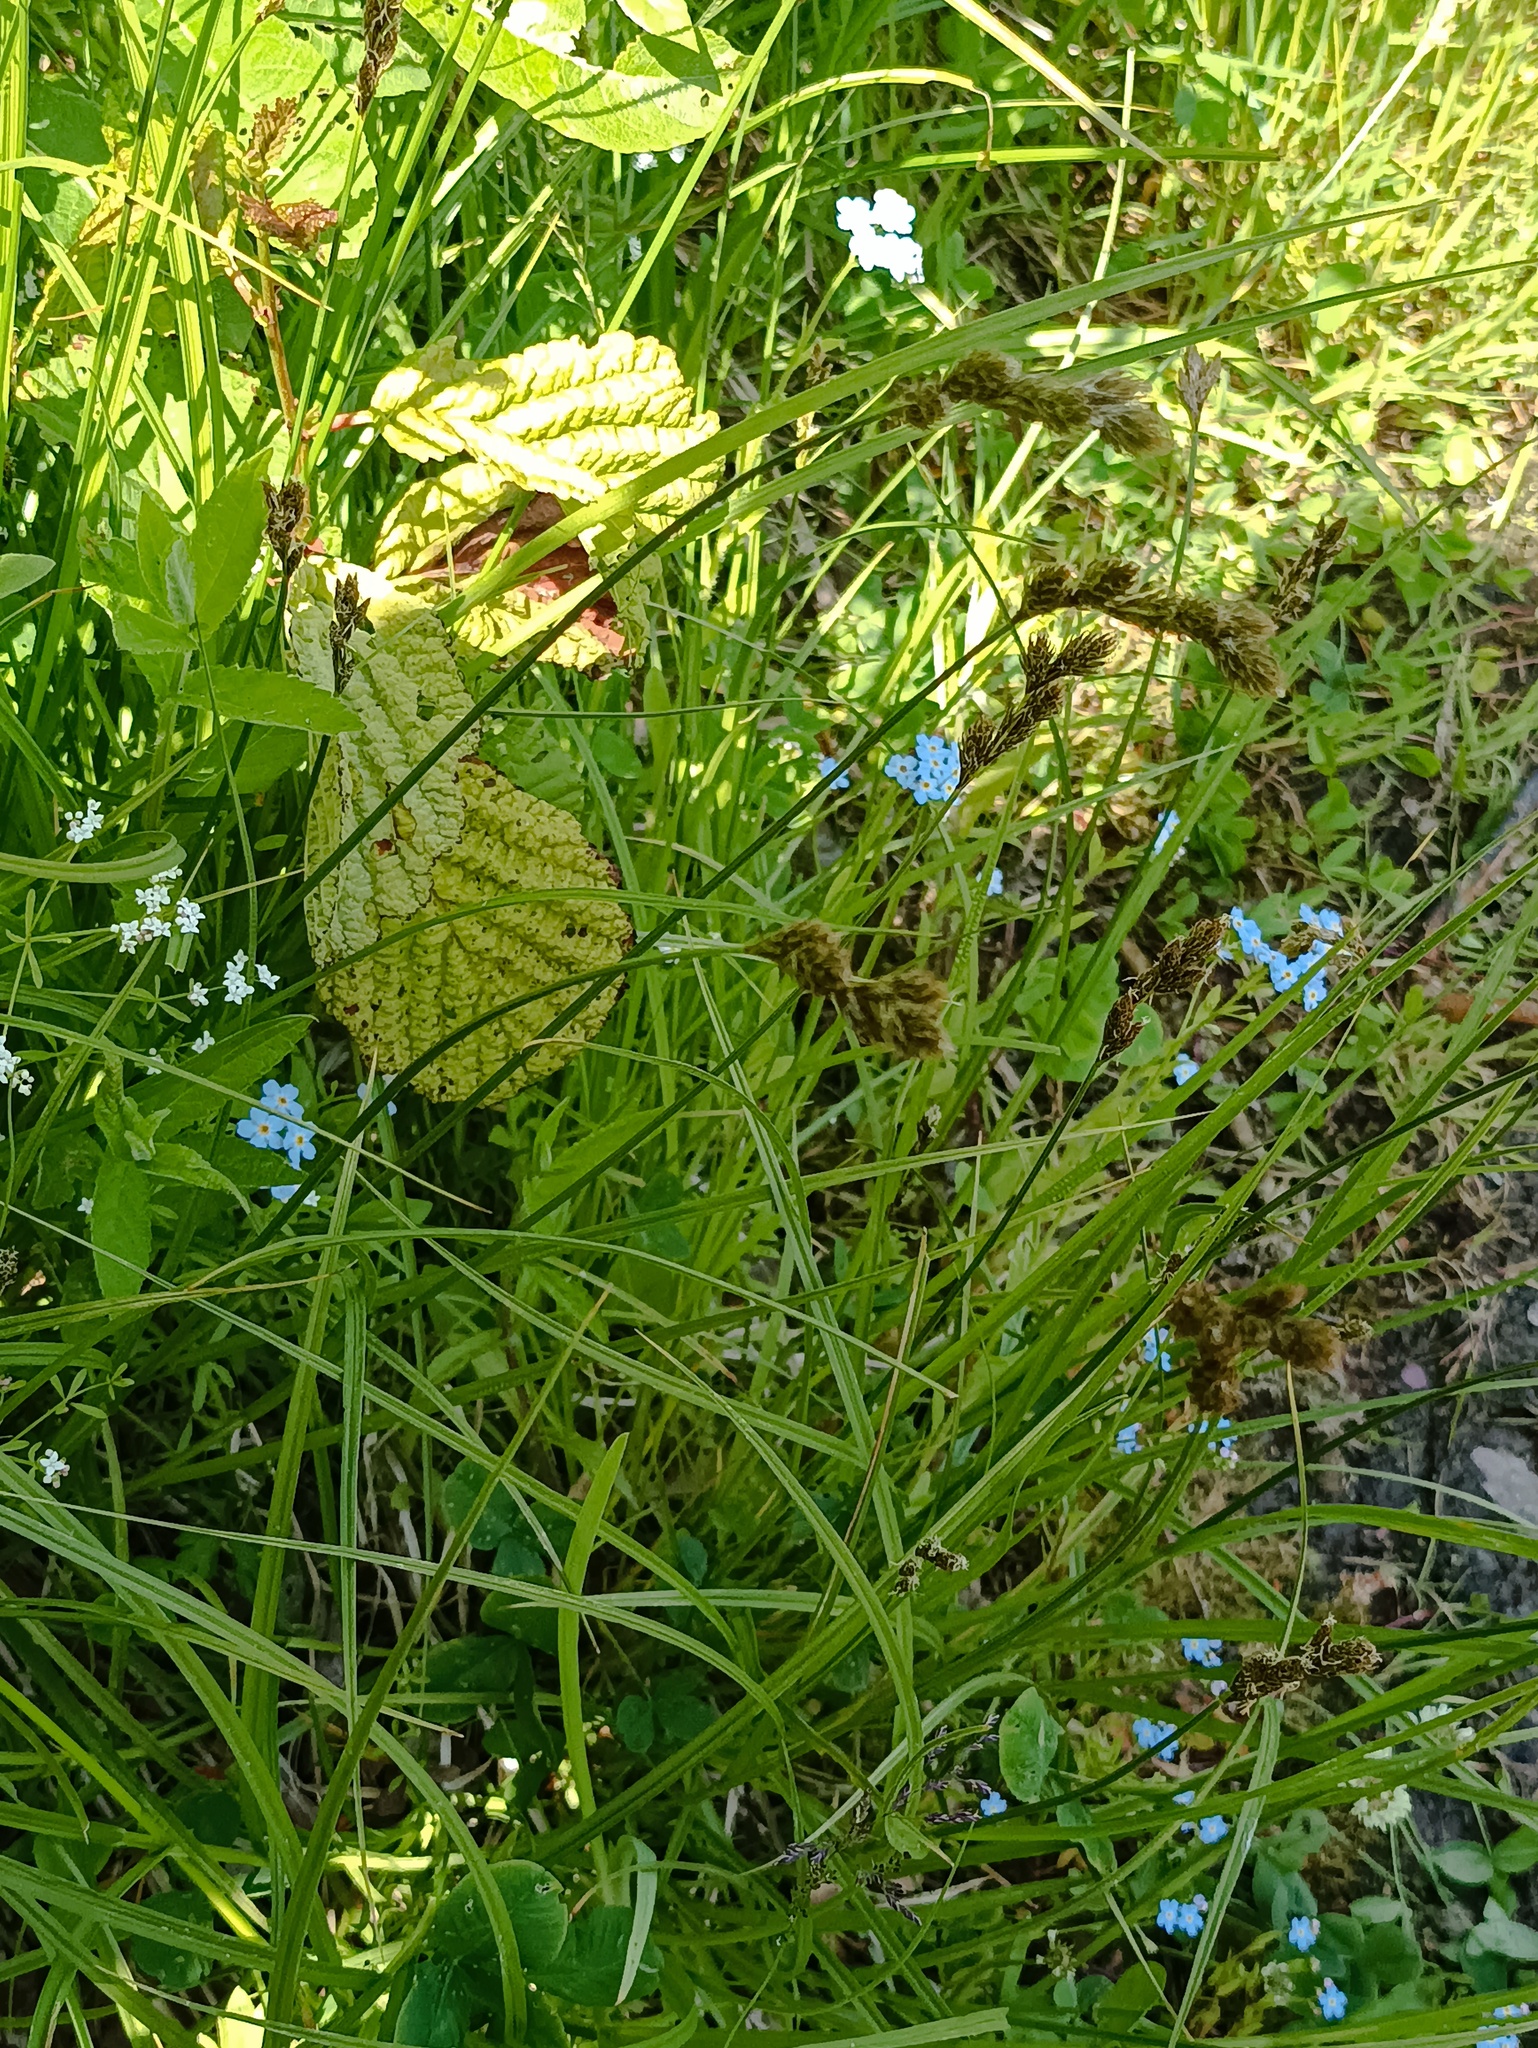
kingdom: Plantae
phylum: Tracheophyta
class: Liliopsida
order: Poales
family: Cyperaceae
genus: Carex
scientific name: Carex leporina
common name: Oval sedge
